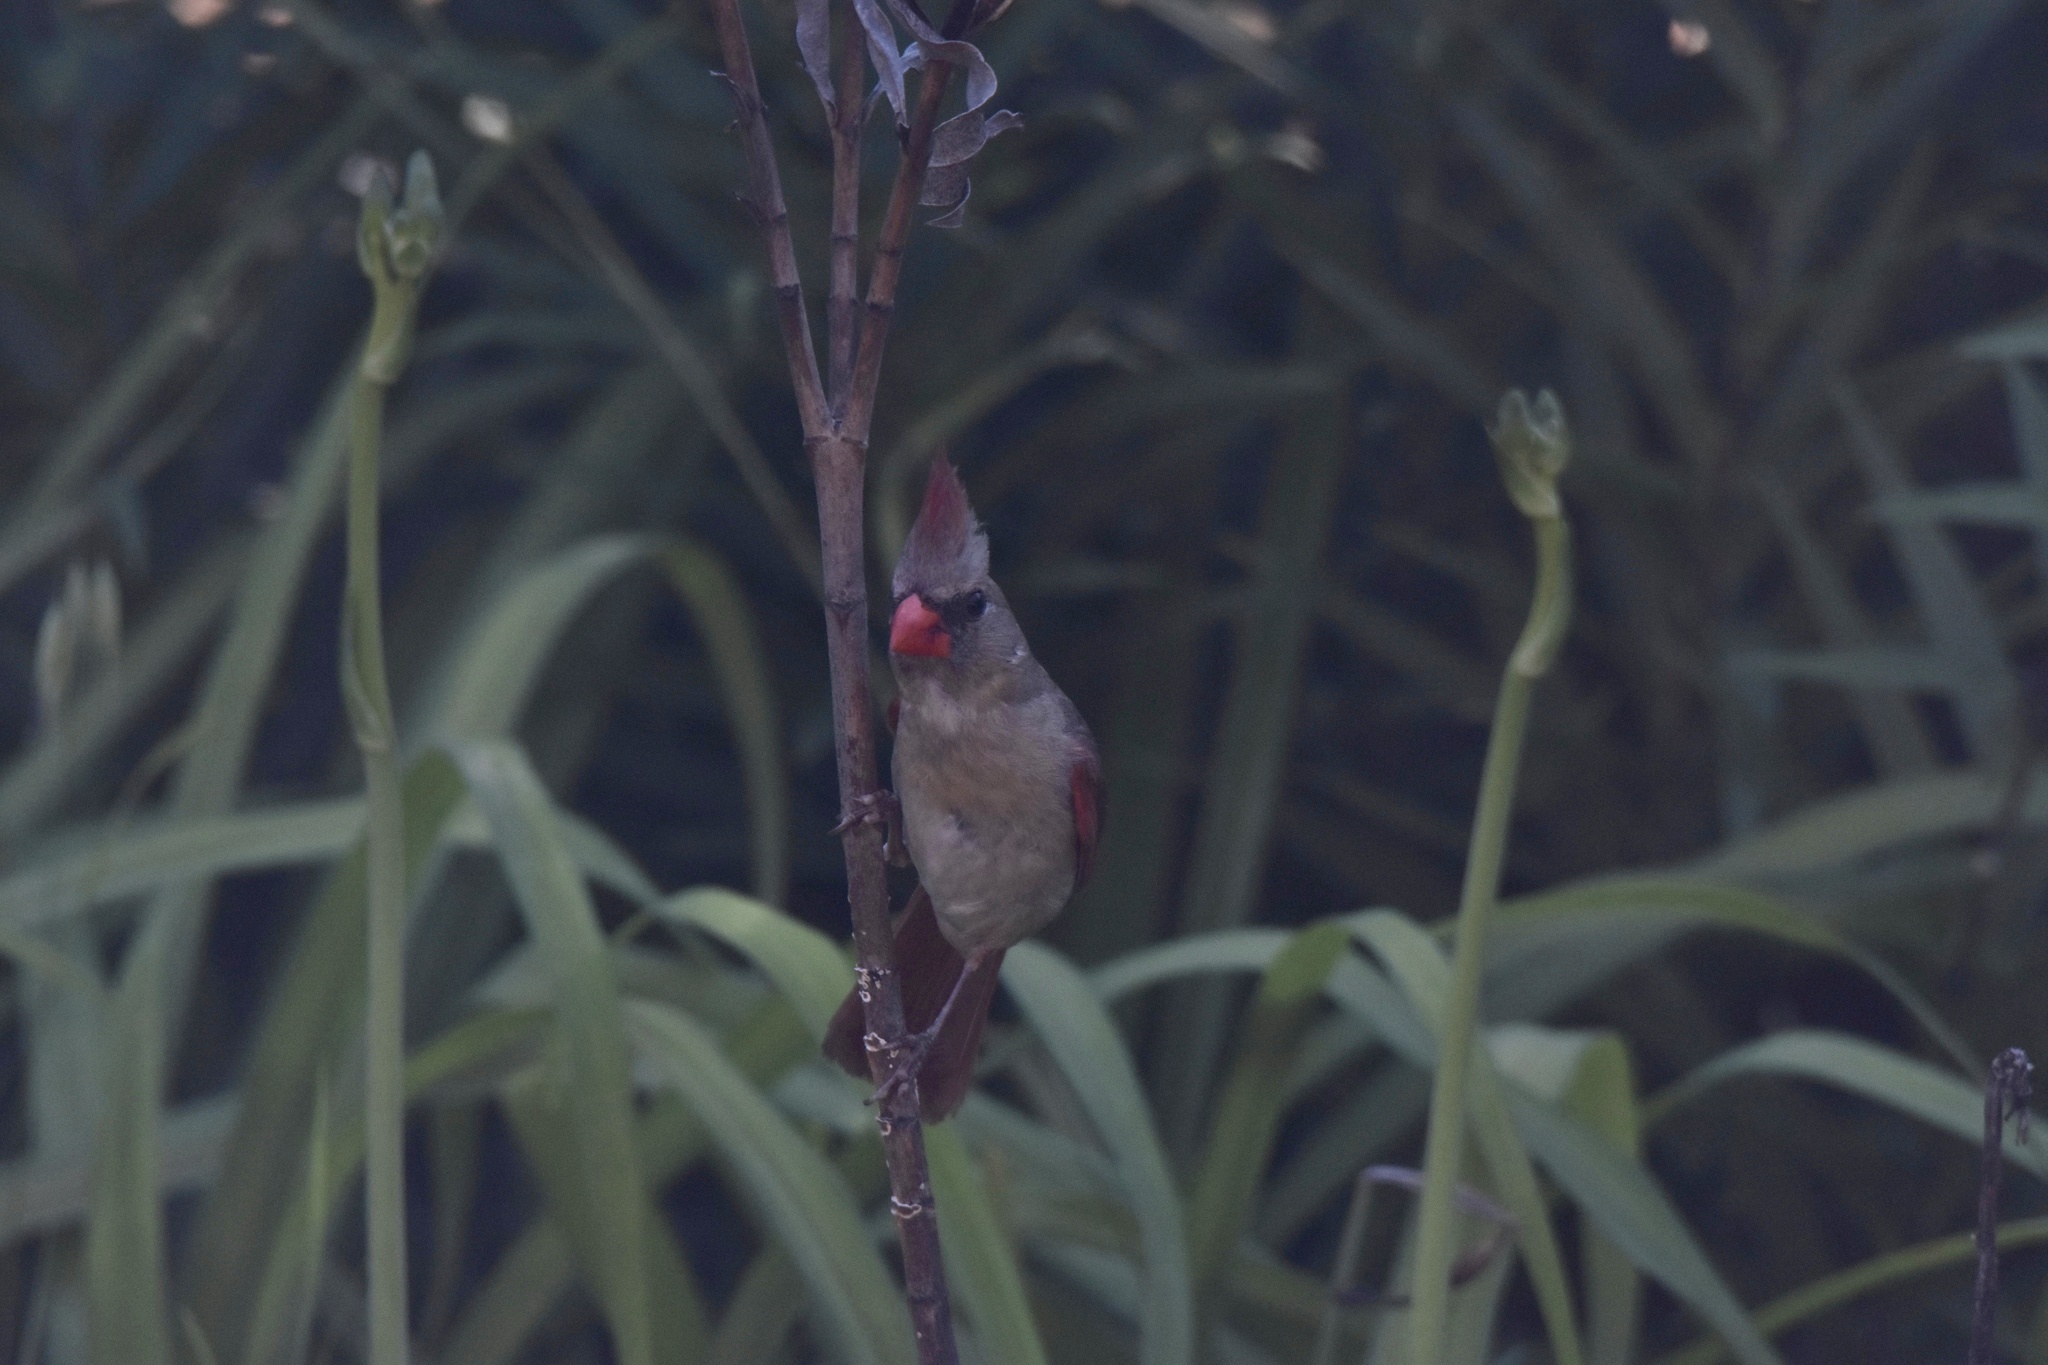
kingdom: Animalia
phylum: Chordata
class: Aves
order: Passeriformes
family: Cardinalidae
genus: Cardinalis
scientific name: Cardinalis cardinalis
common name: Northern cardinal
